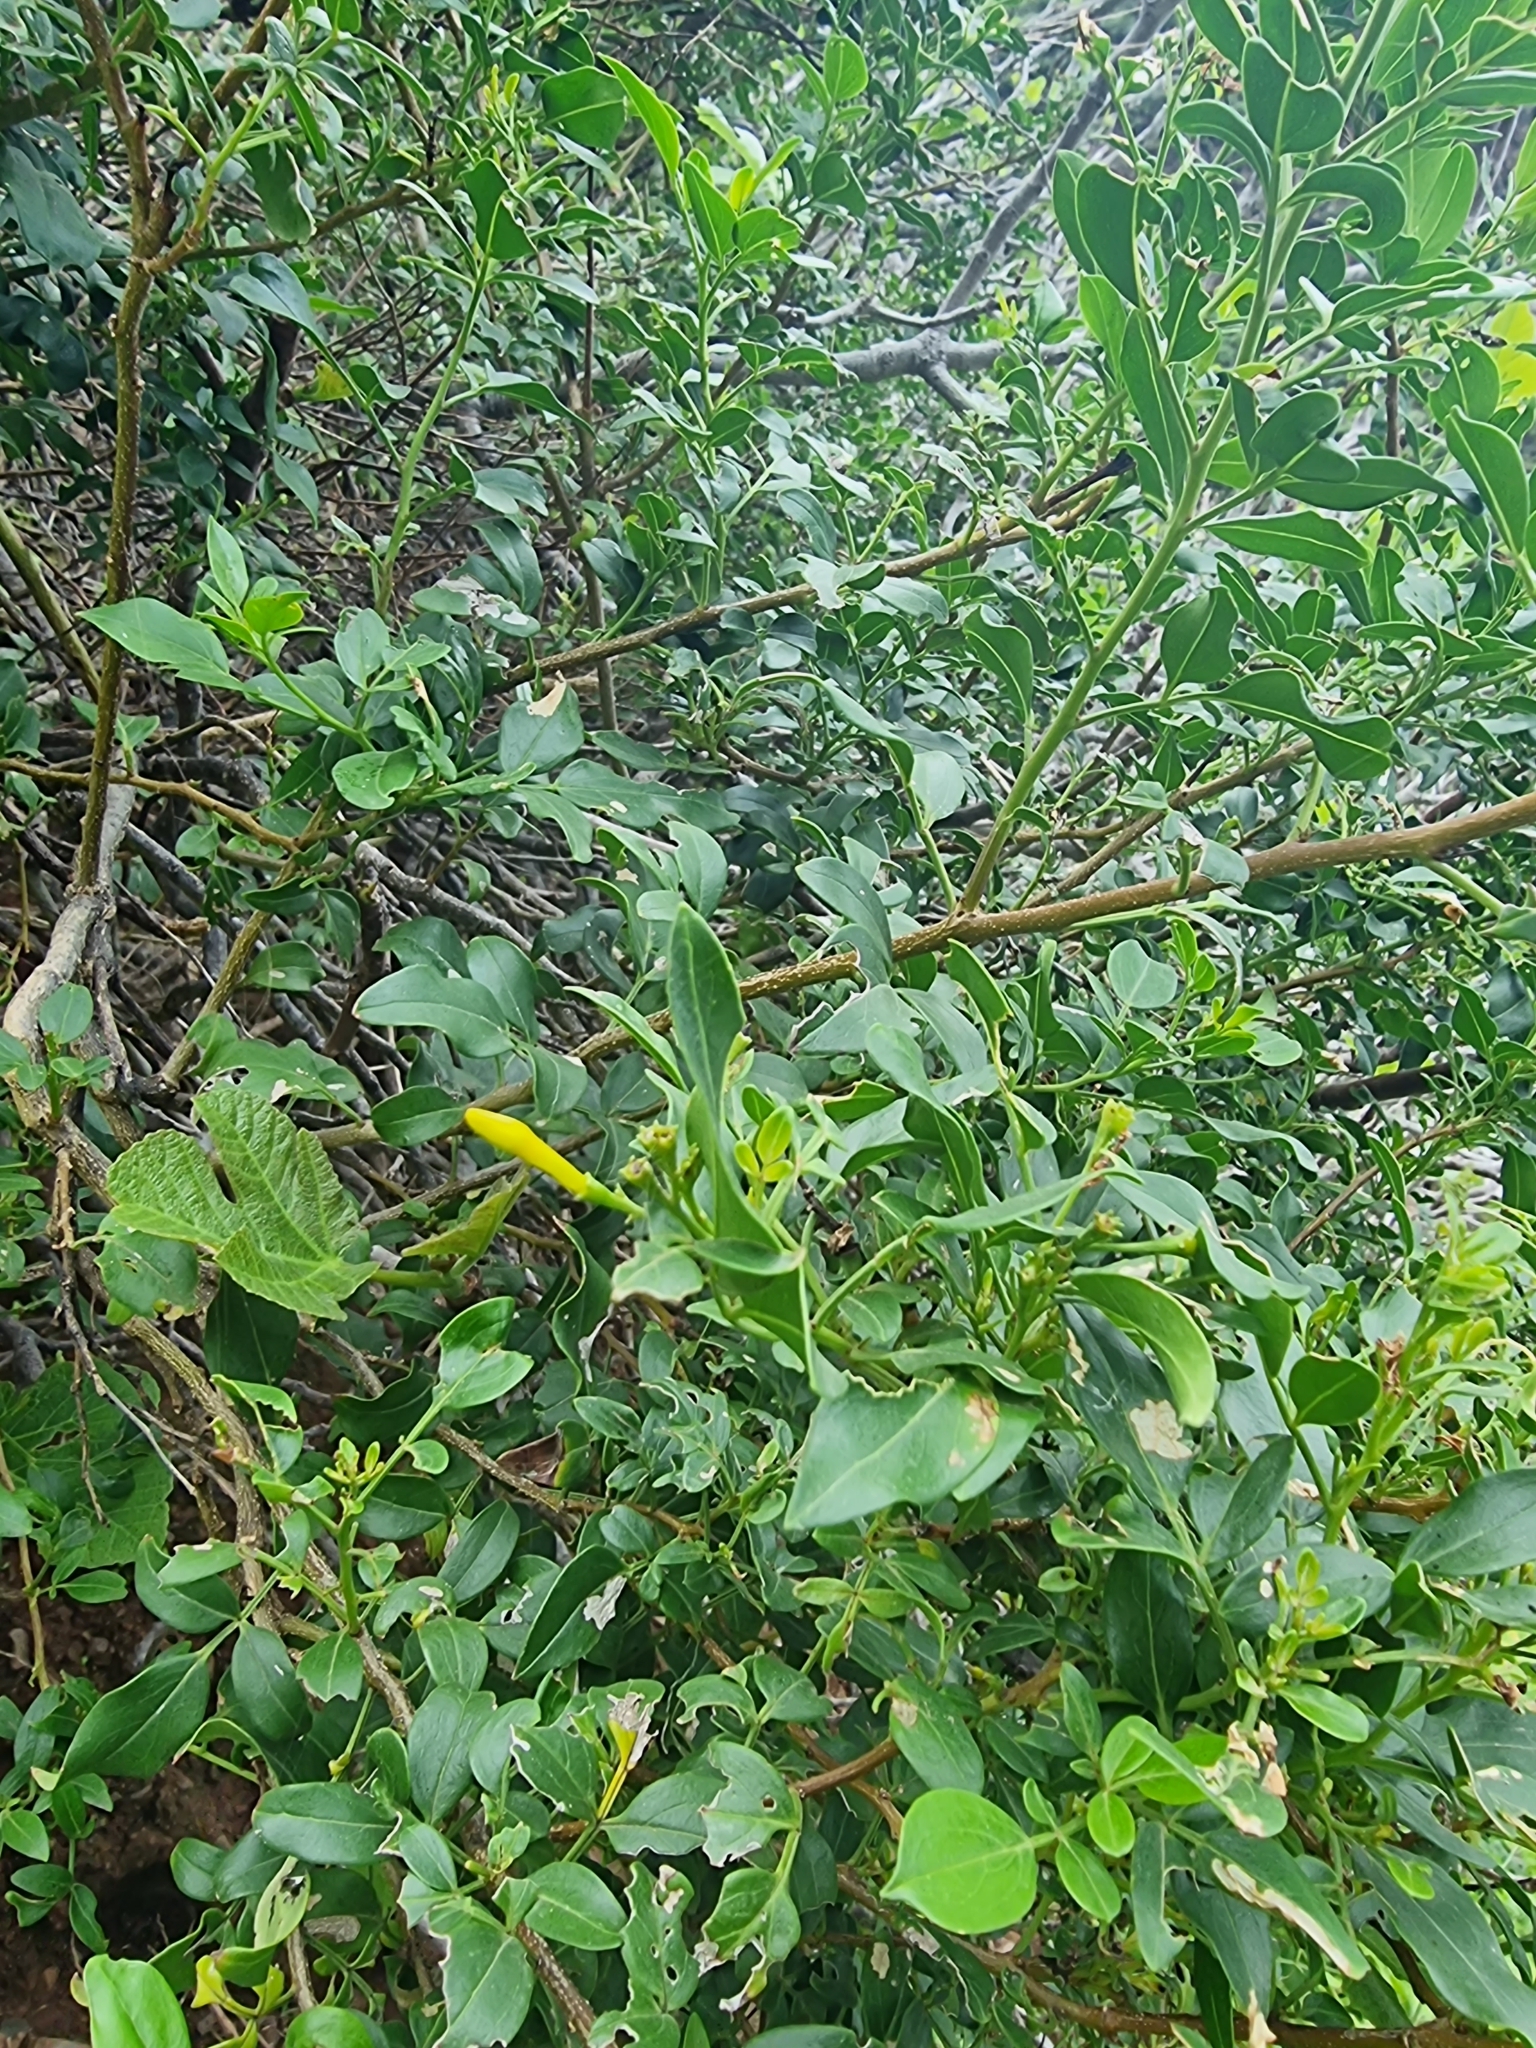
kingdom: Plantae
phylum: Tracheophyta
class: Magnoliopsida
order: Lamiales
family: Oleaceae
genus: Chrysojasminum
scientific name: Chrysojasminum odoratissimum
